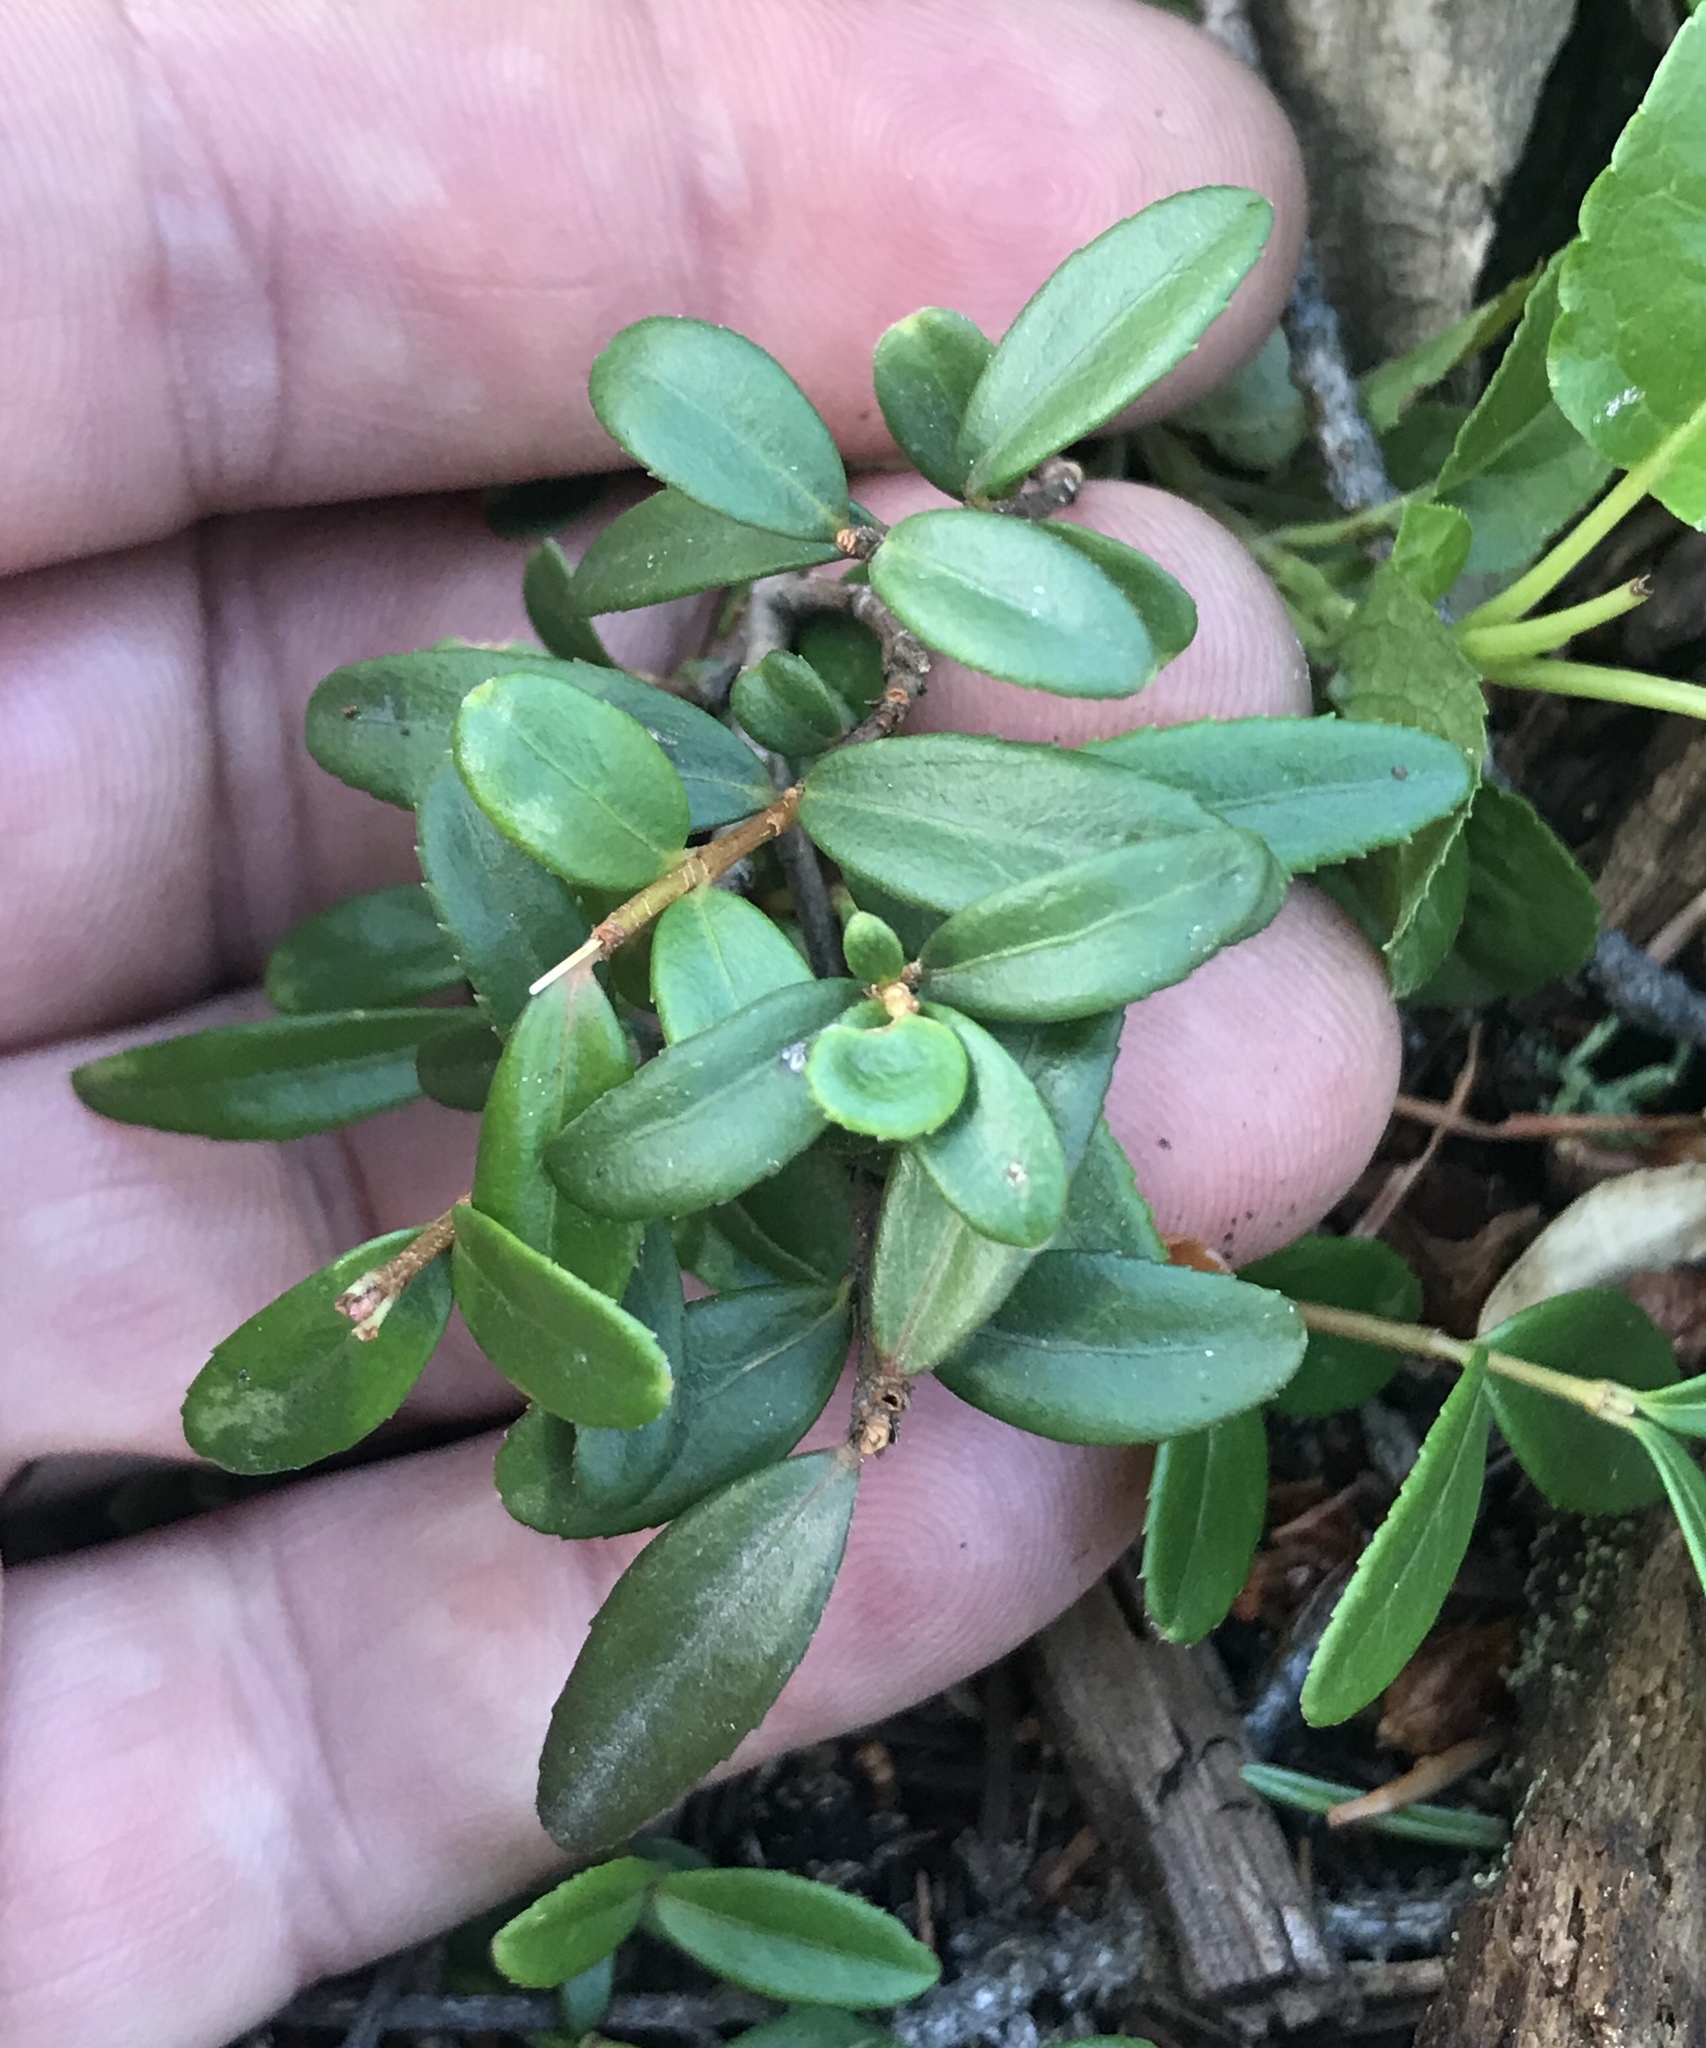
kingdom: Plantae
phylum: Tracheophyta
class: Magnoliopsida
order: Celastrales
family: Celastraceae
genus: Paxistima
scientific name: Paxistima myrsinites
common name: Mountain-lover
